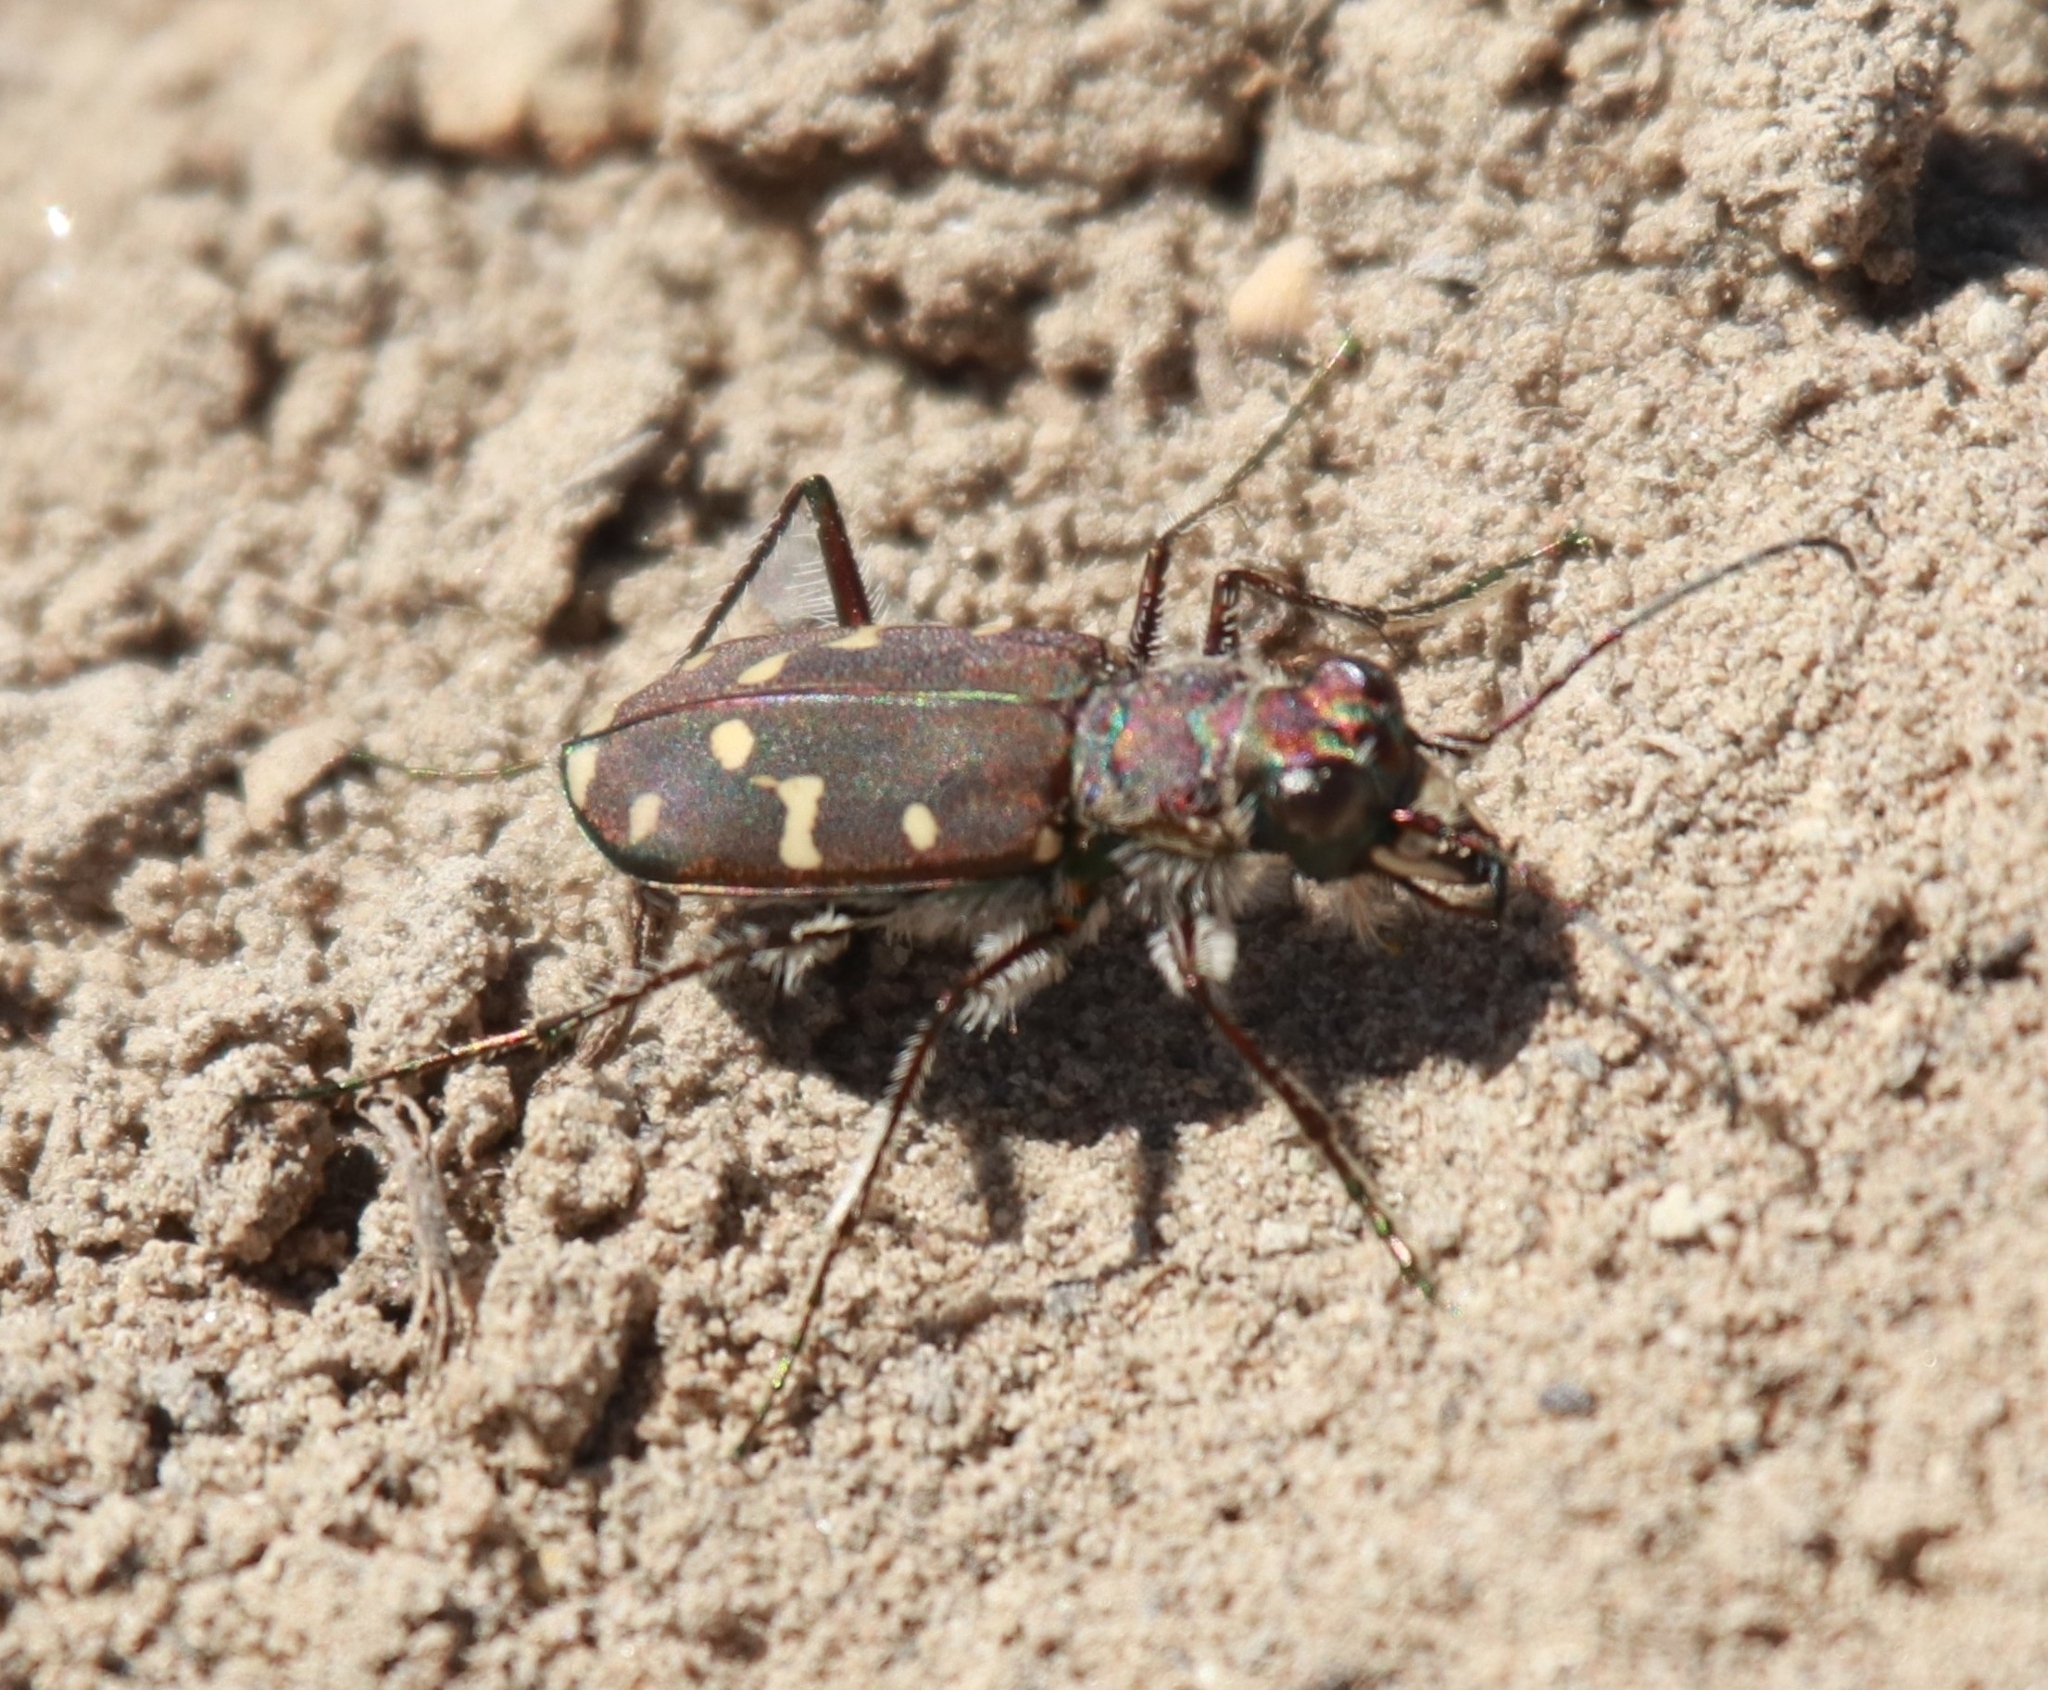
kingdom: Animalia
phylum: Arthropoda
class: Insecta
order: Coleoptera
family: Carabidae
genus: Cicindela
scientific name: Cicindela oregona
